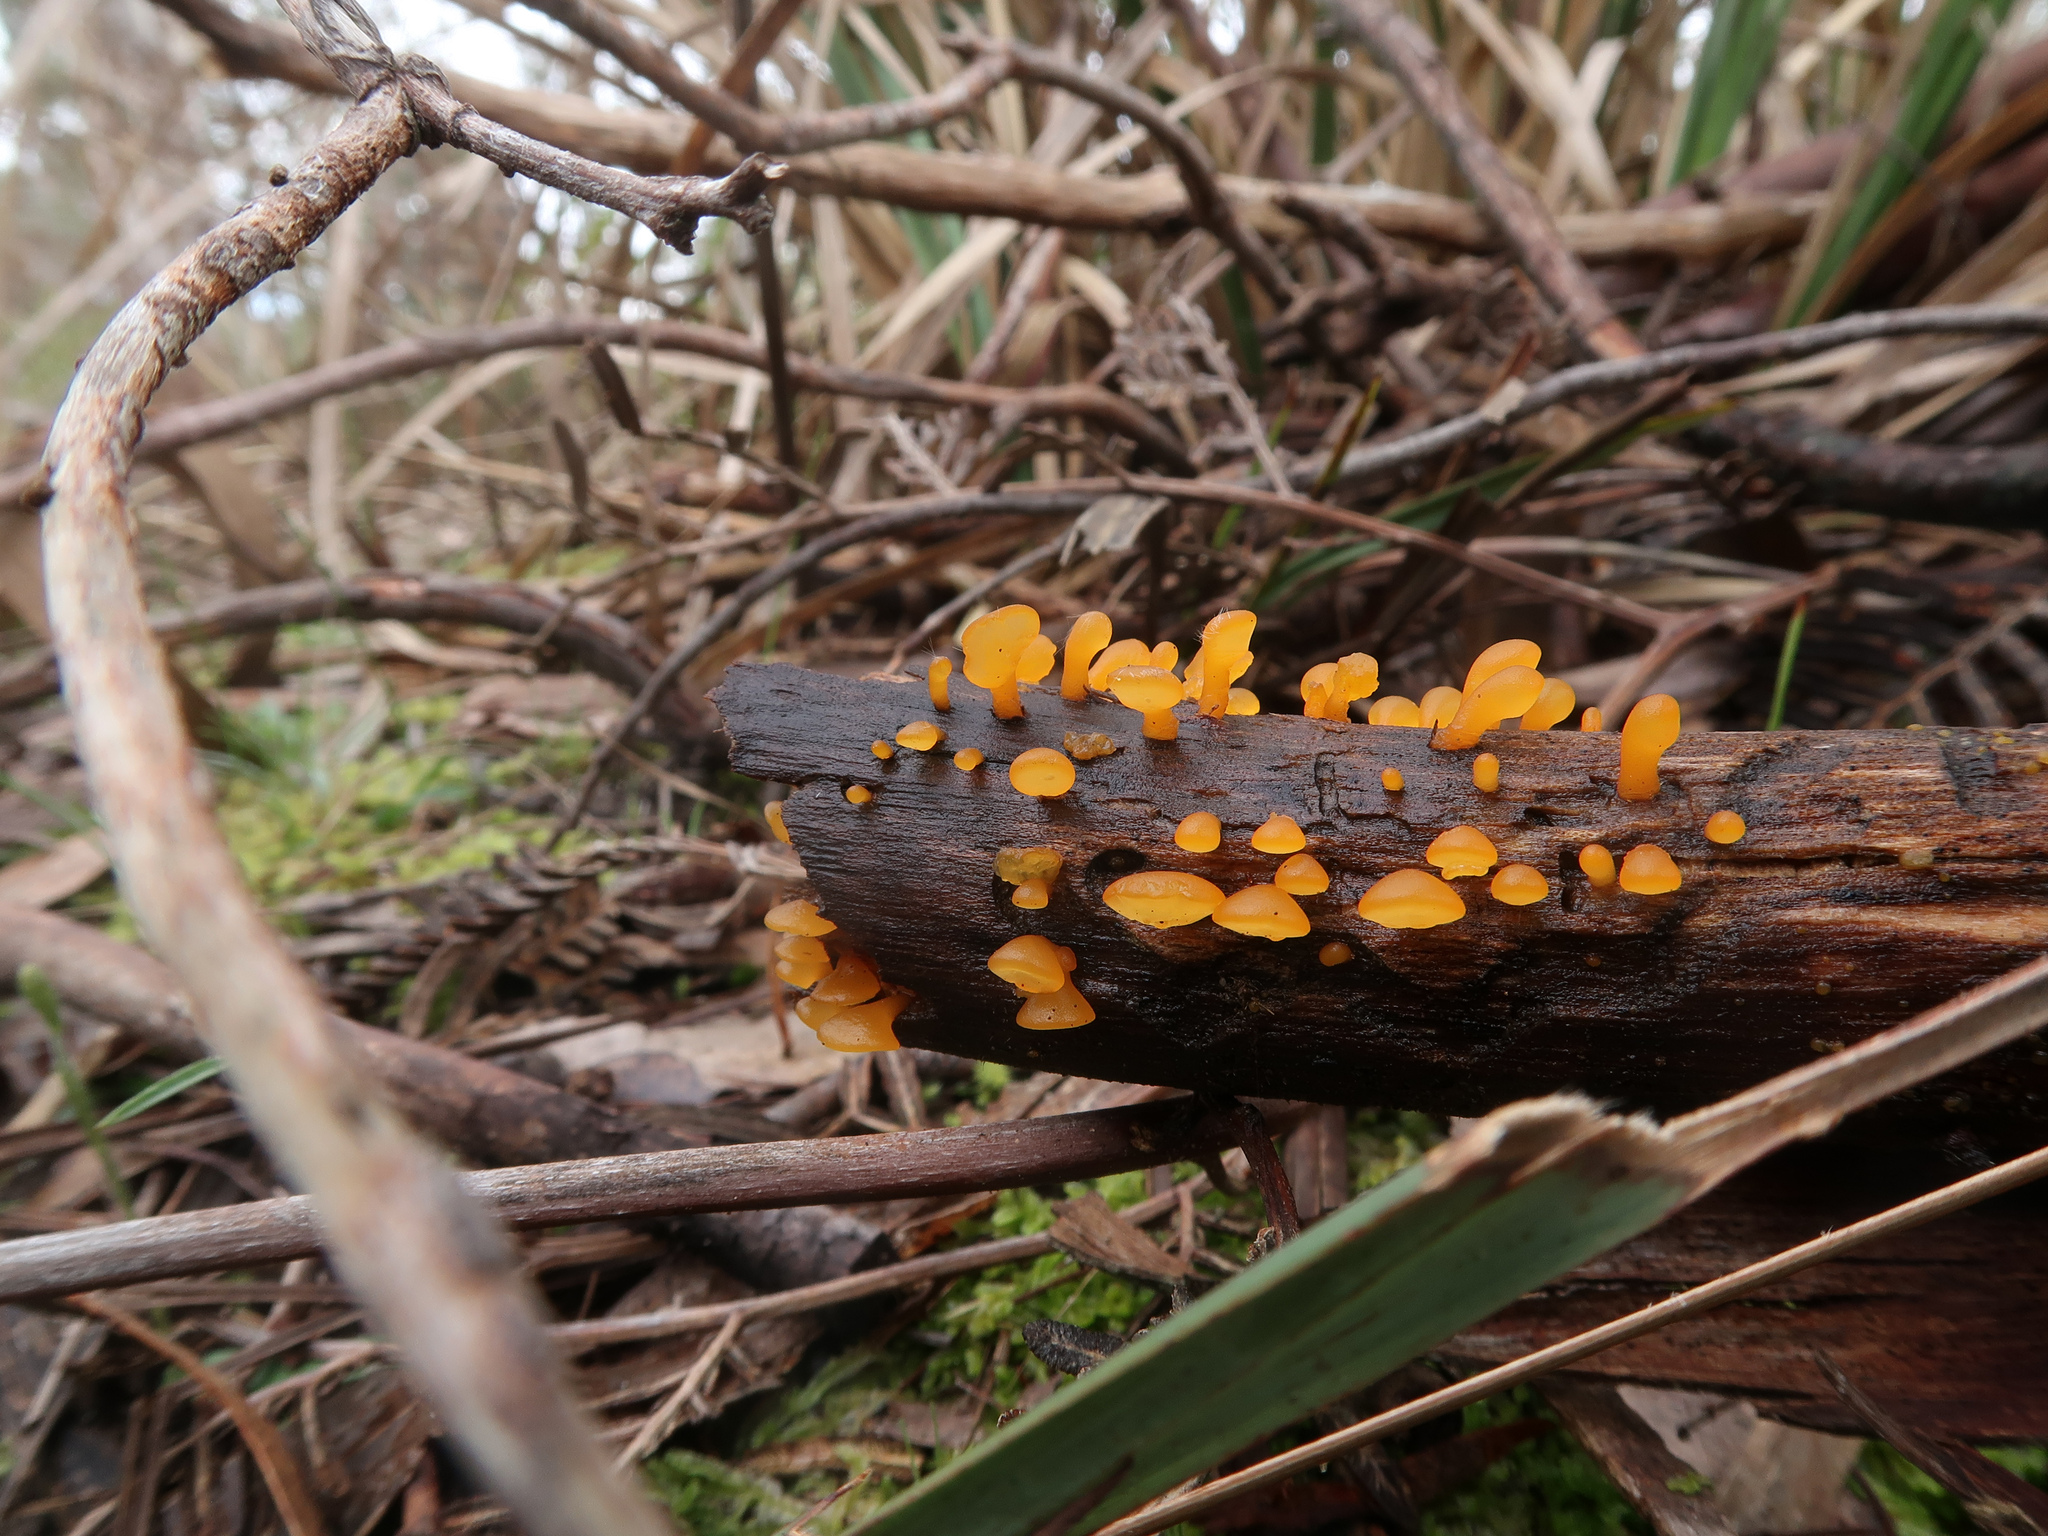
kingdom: Fungi
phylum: Basidiomycota
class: Dacrymycetes
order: Dacrymycetales
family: Dacrymycetaceae
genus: Heterotextus
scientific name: Heterotextus peziziformis
